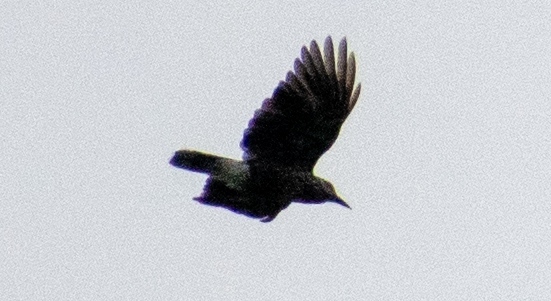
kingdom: Animalia
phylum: Chordata
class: Aves
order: Passeriformes
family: Corvidae
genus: Nucifraga
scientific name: Nucifraga caryocatactes
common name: Spotted nutcracker
